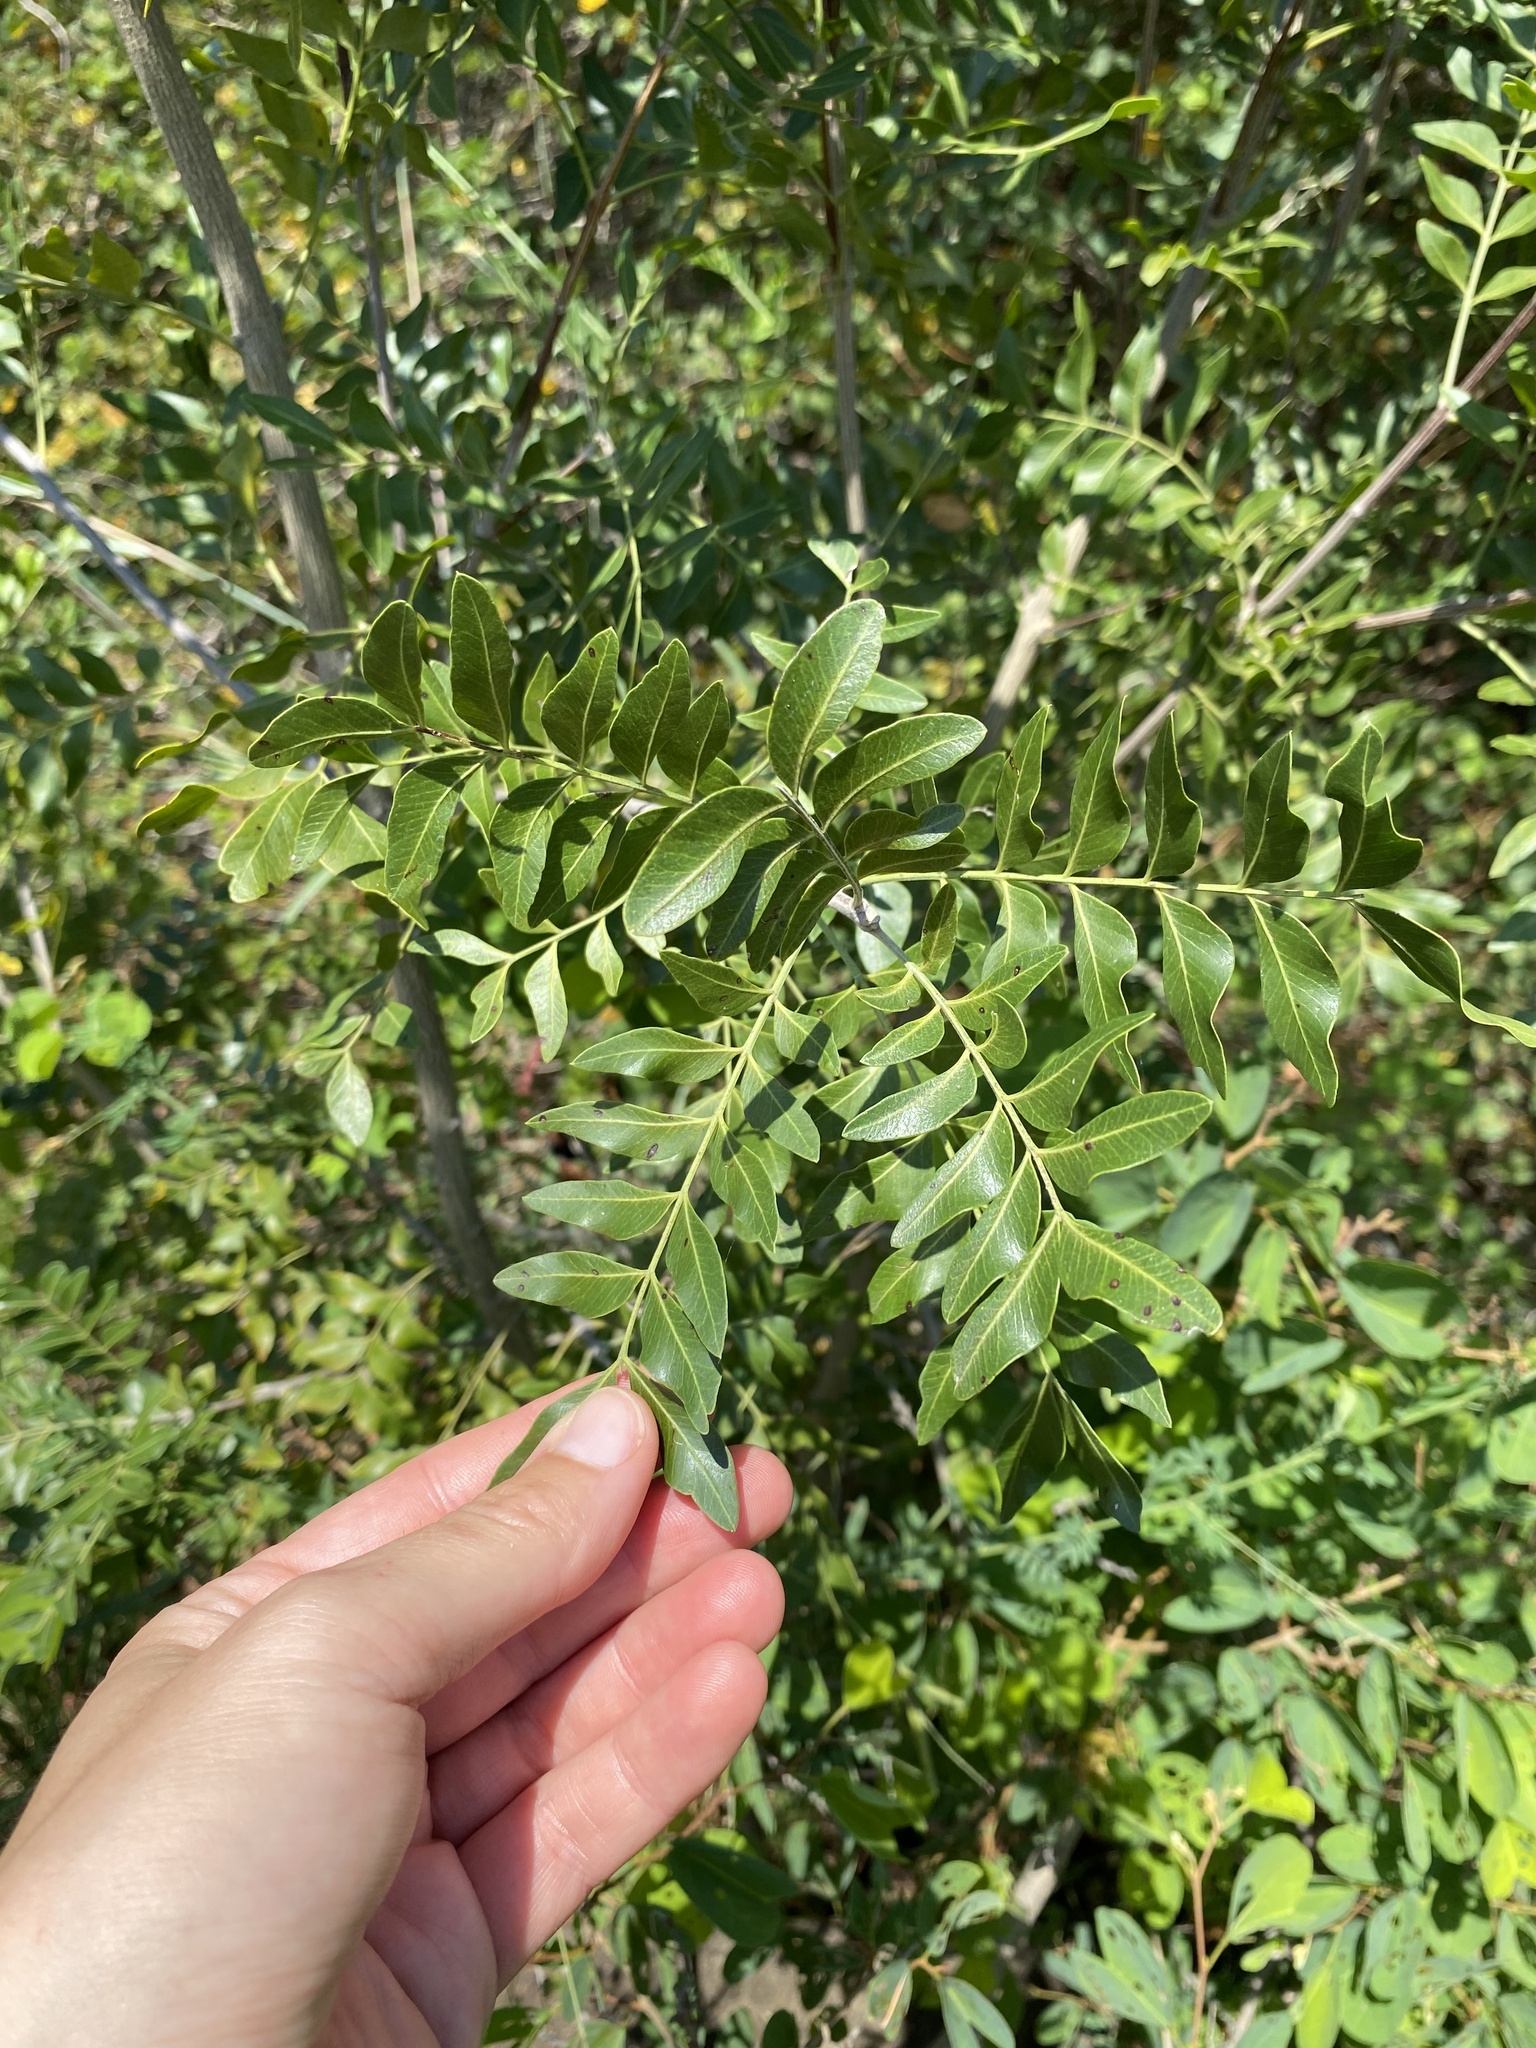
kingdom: Plantae
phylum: Tracheophyta
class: Magnoliopsida
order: Sapindales
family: Rutaceae
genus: Ptaeroxylon
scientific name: Ptaeroxylon obliquum
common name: Sneezewood
